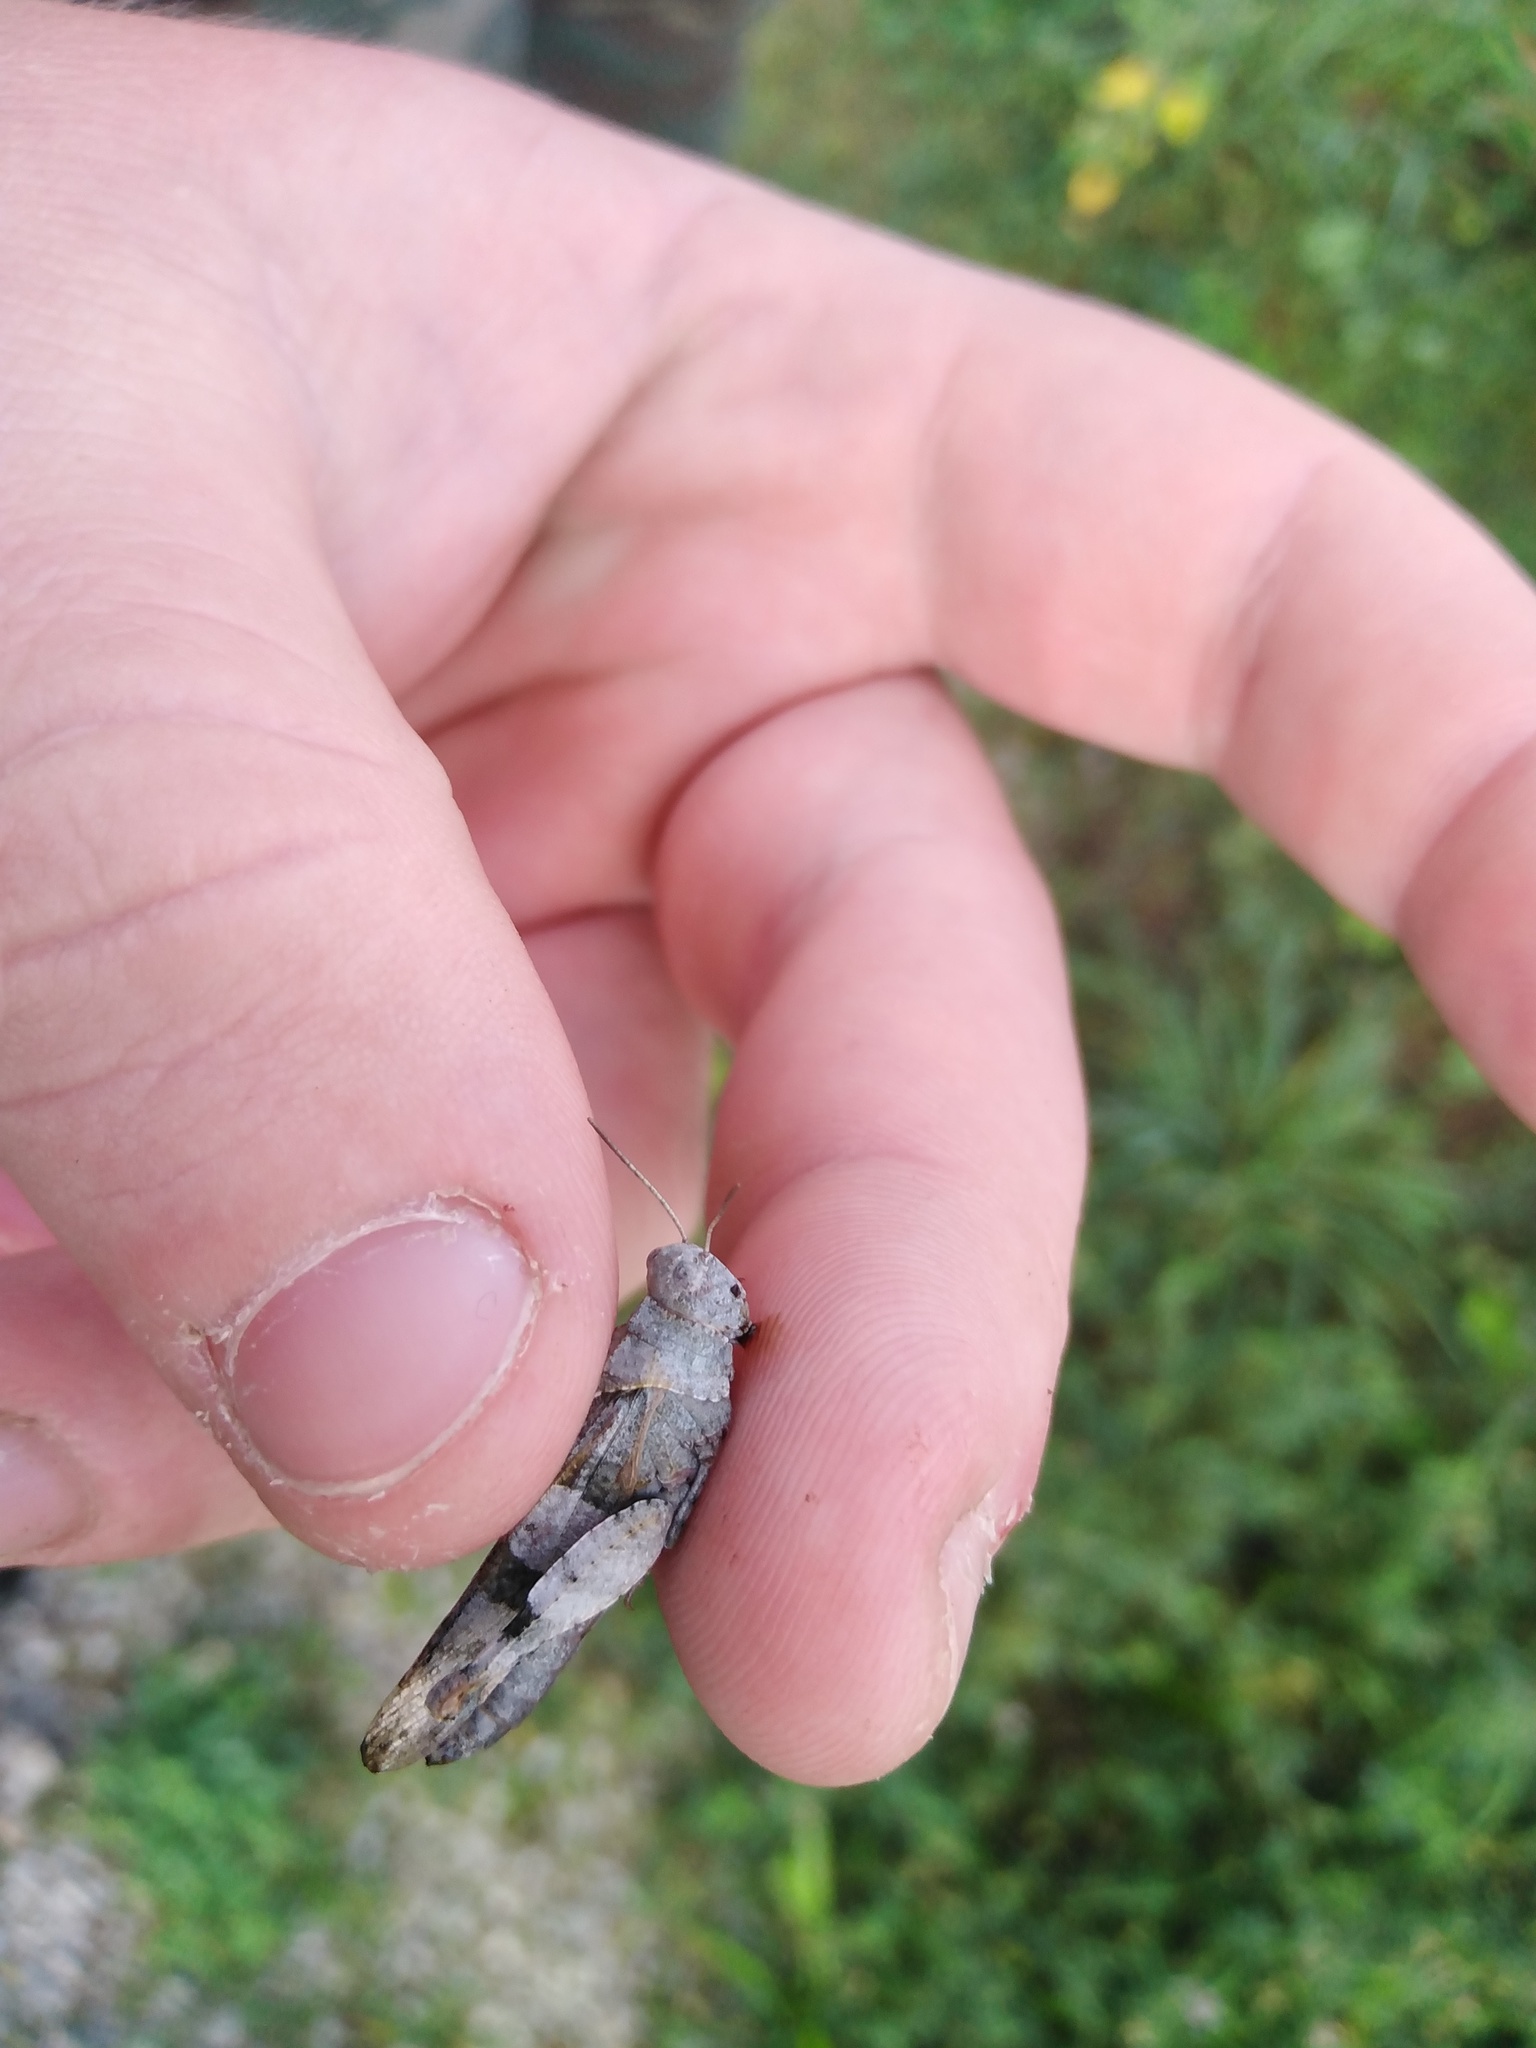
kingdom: Animalia
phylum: Arthropoda
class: Insecta
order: Orthoptera
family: Acrididae
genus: Oedipoda
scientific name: Oedipoda caerulescens
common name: Blue-winged grasshopper
